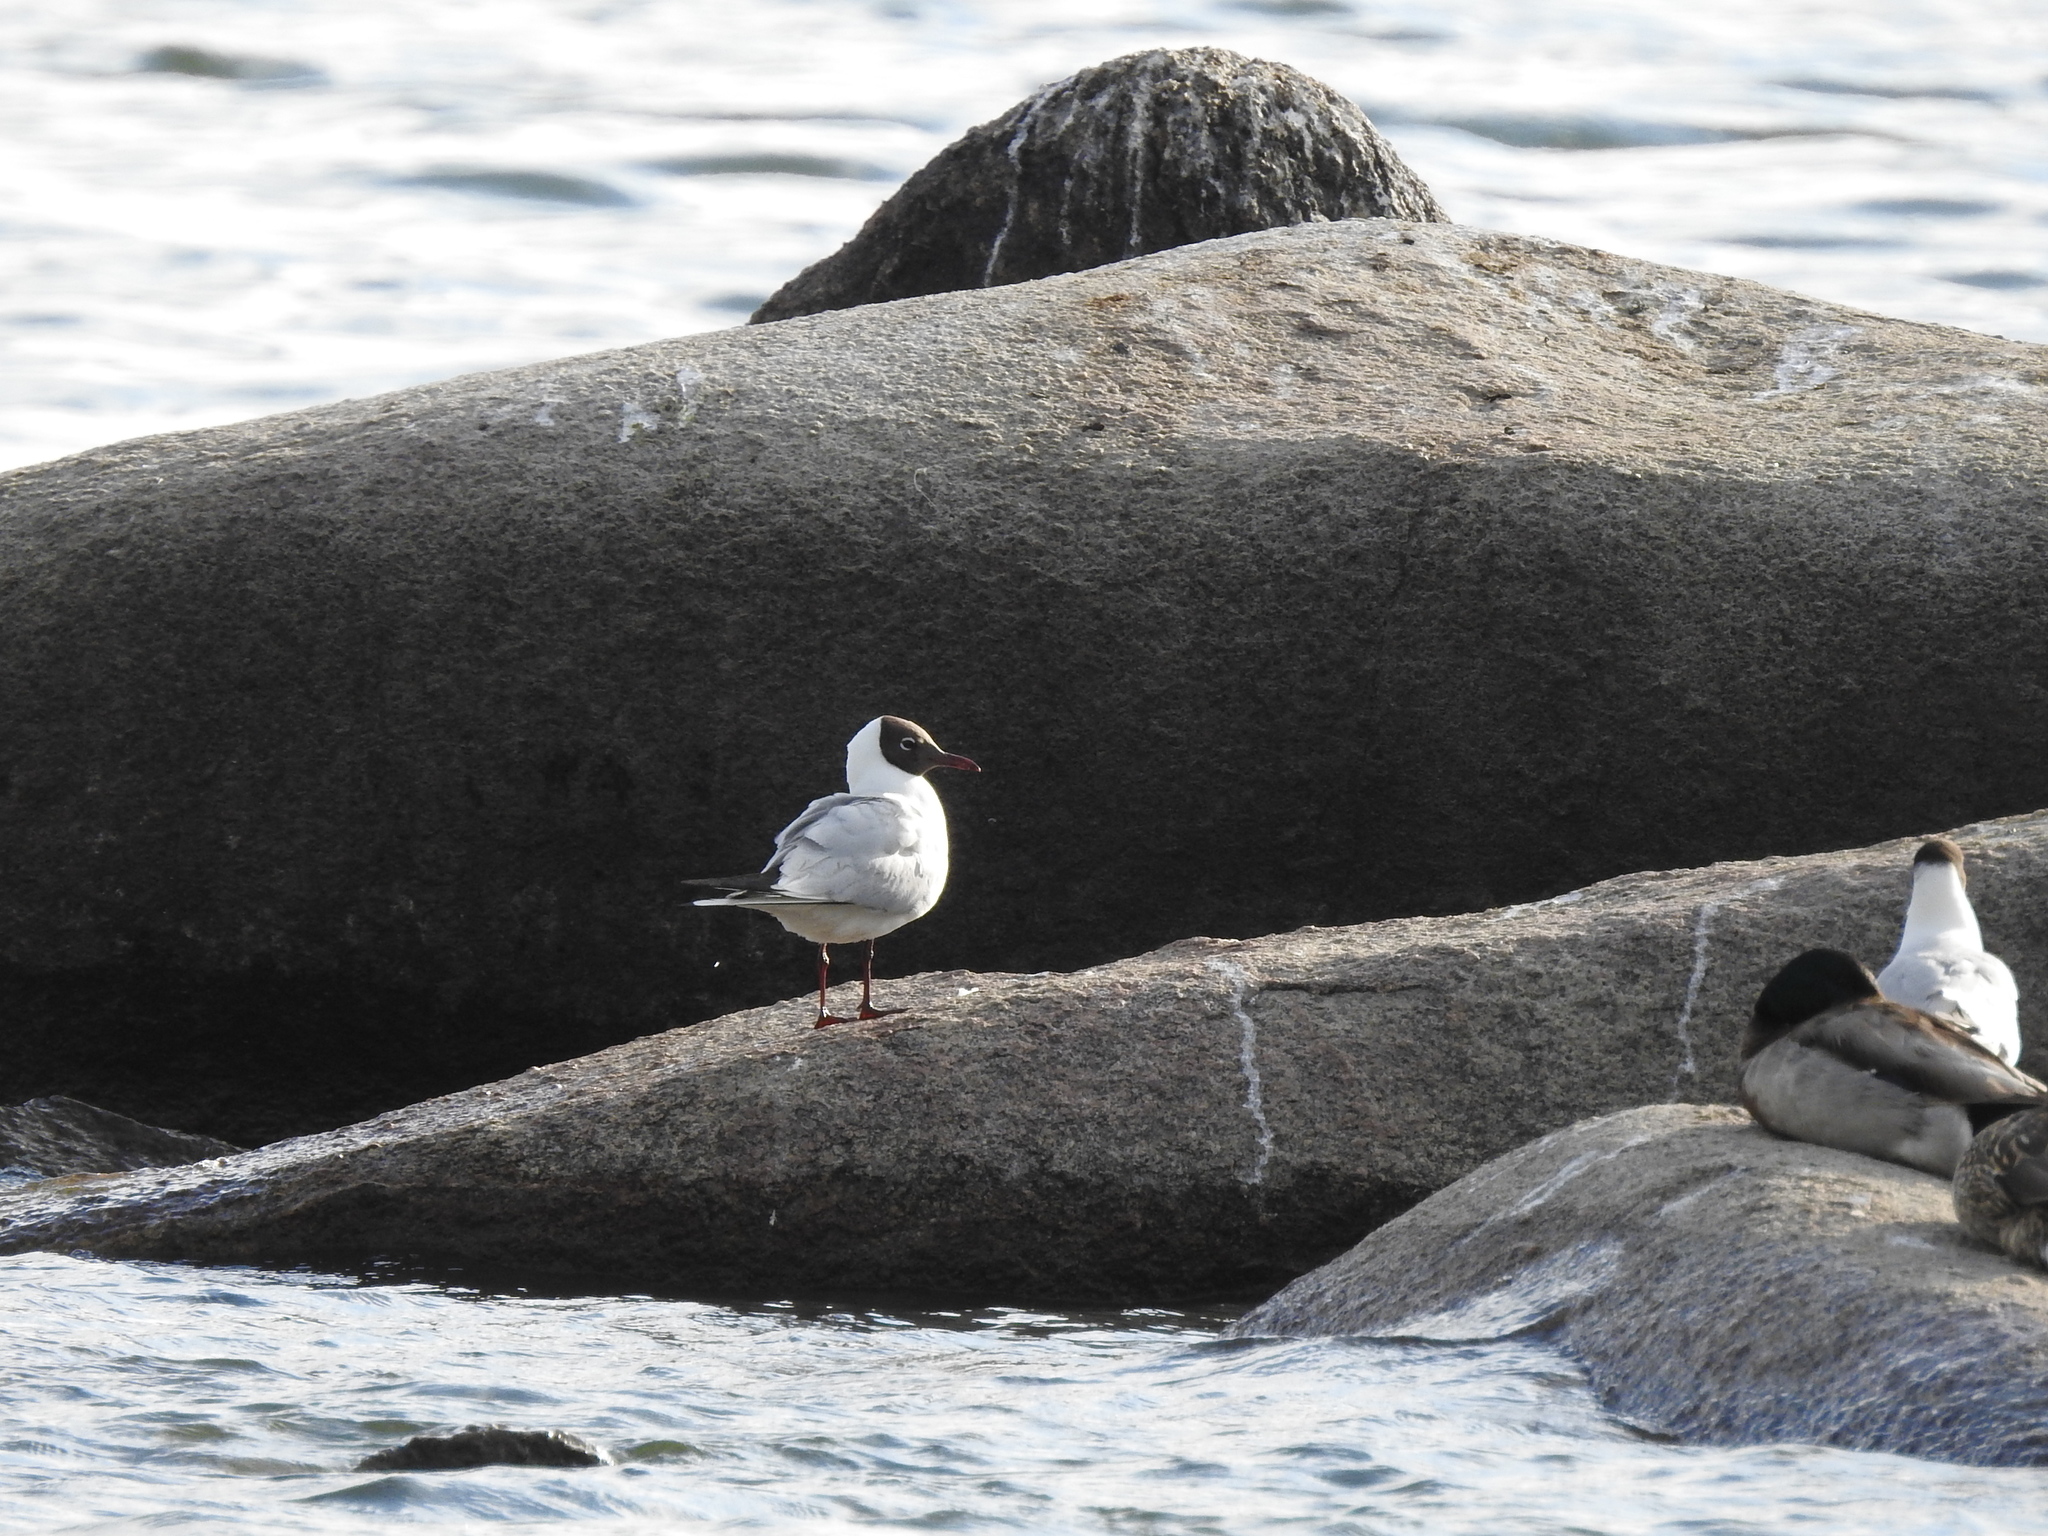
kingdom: Animalia
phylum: Chordata
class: Aves
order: Charadriiformes
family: Laridae
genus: Chroicocephalus
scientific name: Chroicocephalus ridibundus
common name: Black-headed gull
